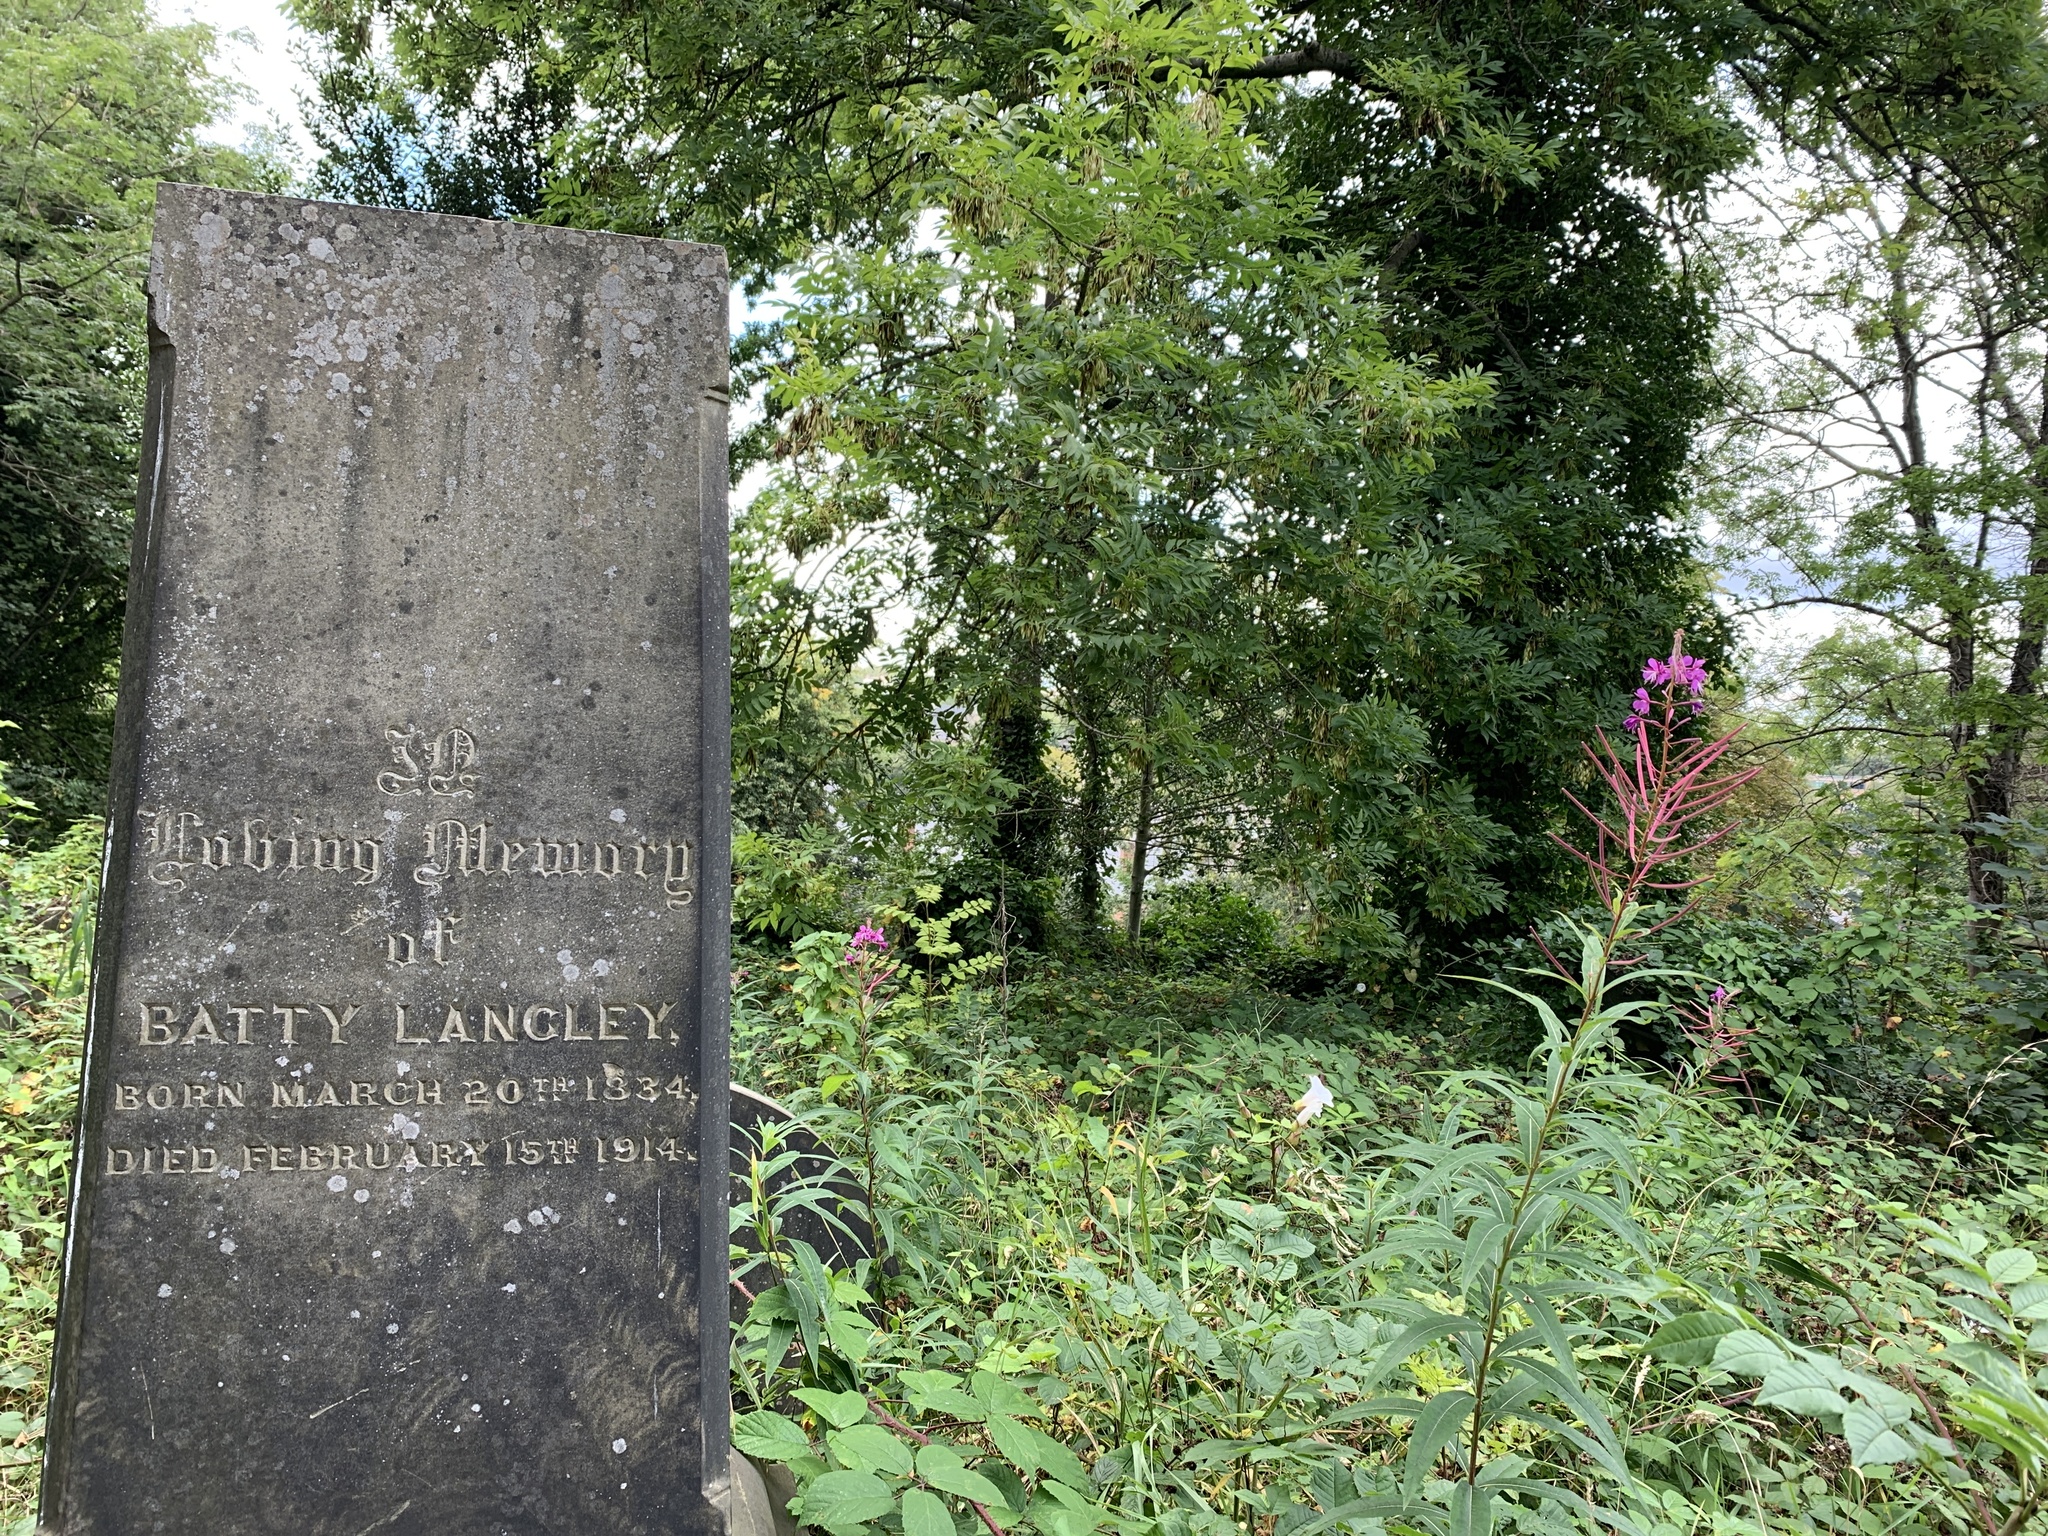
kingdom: Plantae
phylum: Tracheophyta
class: Magnoliopsida
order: Myrtales
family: Onagraceae
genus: Chamaenerion
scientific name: Chamaenerion angustifolium
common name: Fireweed
